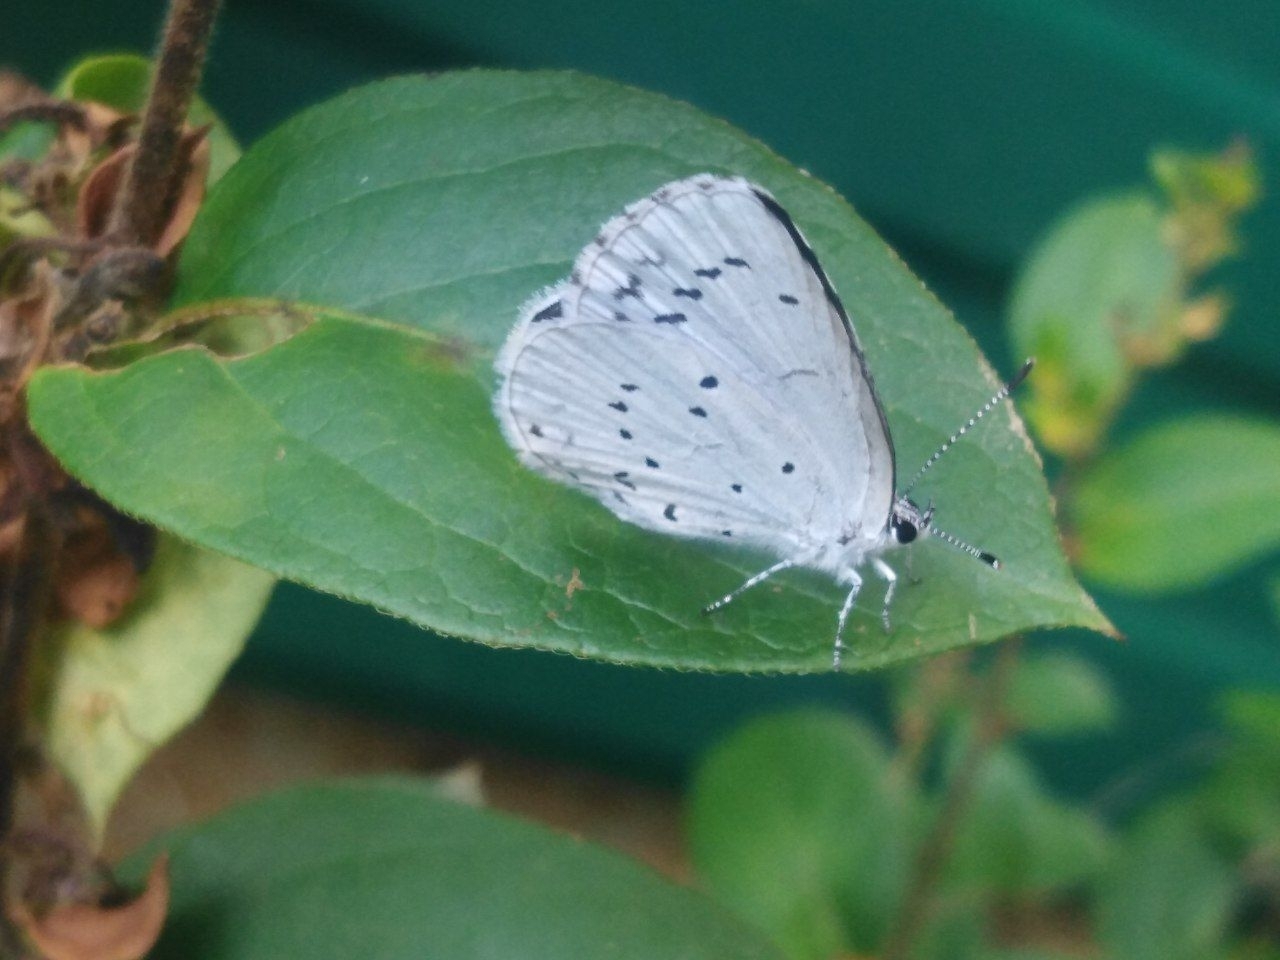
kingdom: Animalia
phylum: Arthropoda
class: Insecta
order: Lepidoptera
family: Lycaenidae
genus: Celastrina
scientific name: Celastrina argiolus
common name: Holly blue
